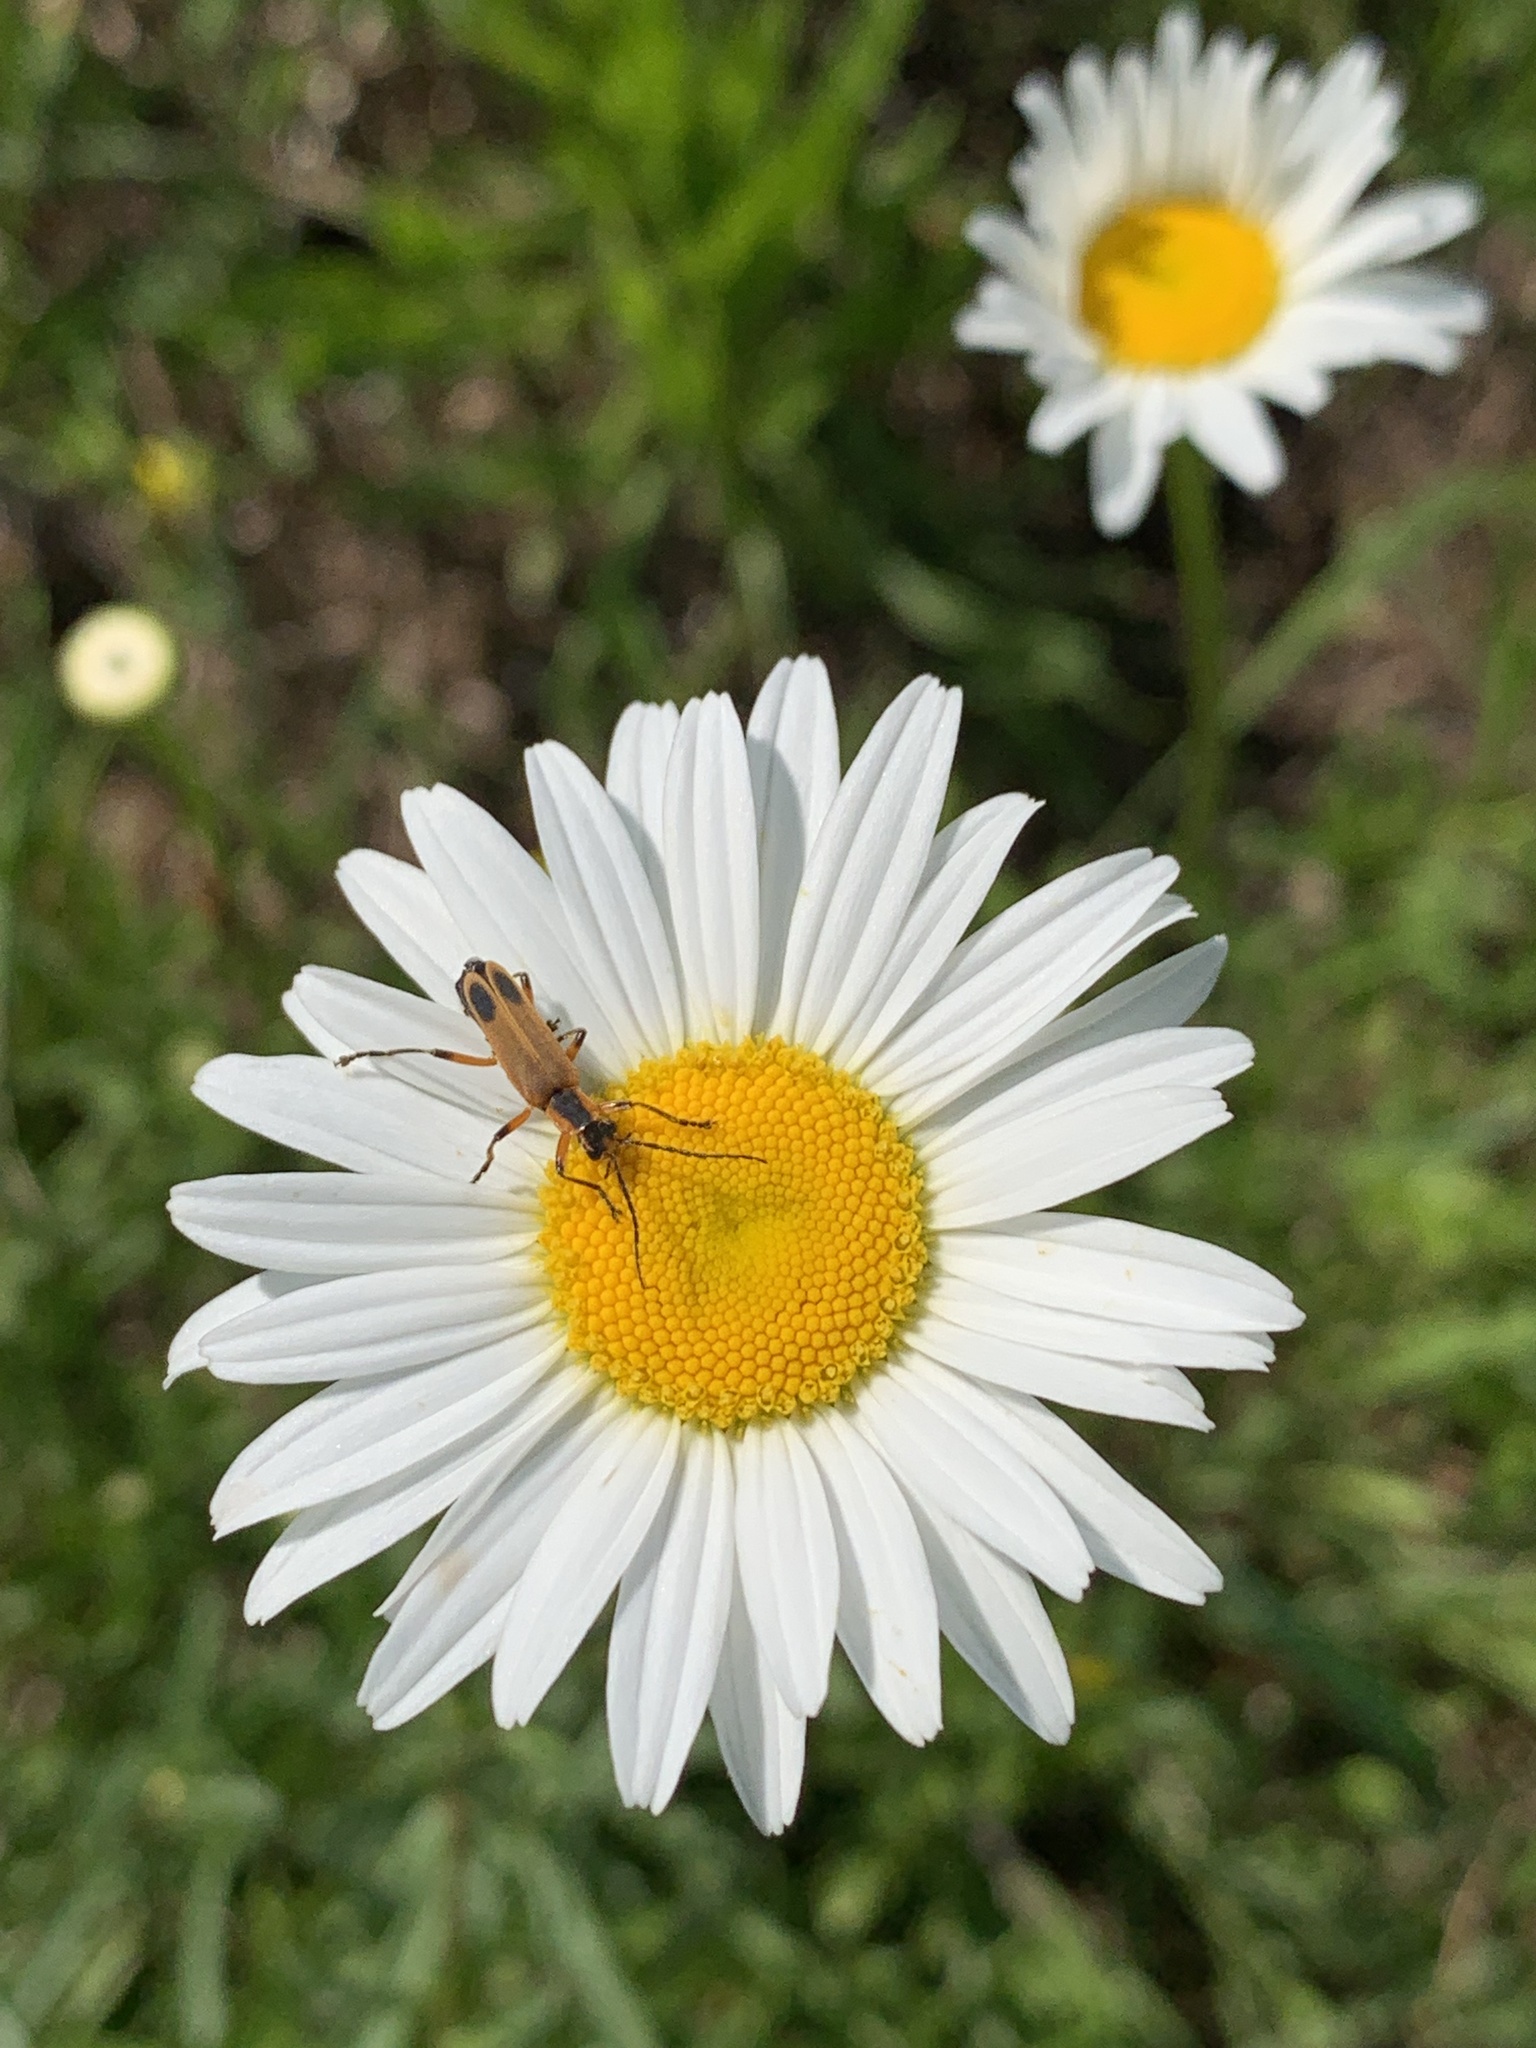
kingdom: Animalia
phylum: Arthropoda
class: Insecta
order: Coleoptera
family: Cantharidae
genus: Chauliognathus
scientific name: Chauliognathus marginatus
